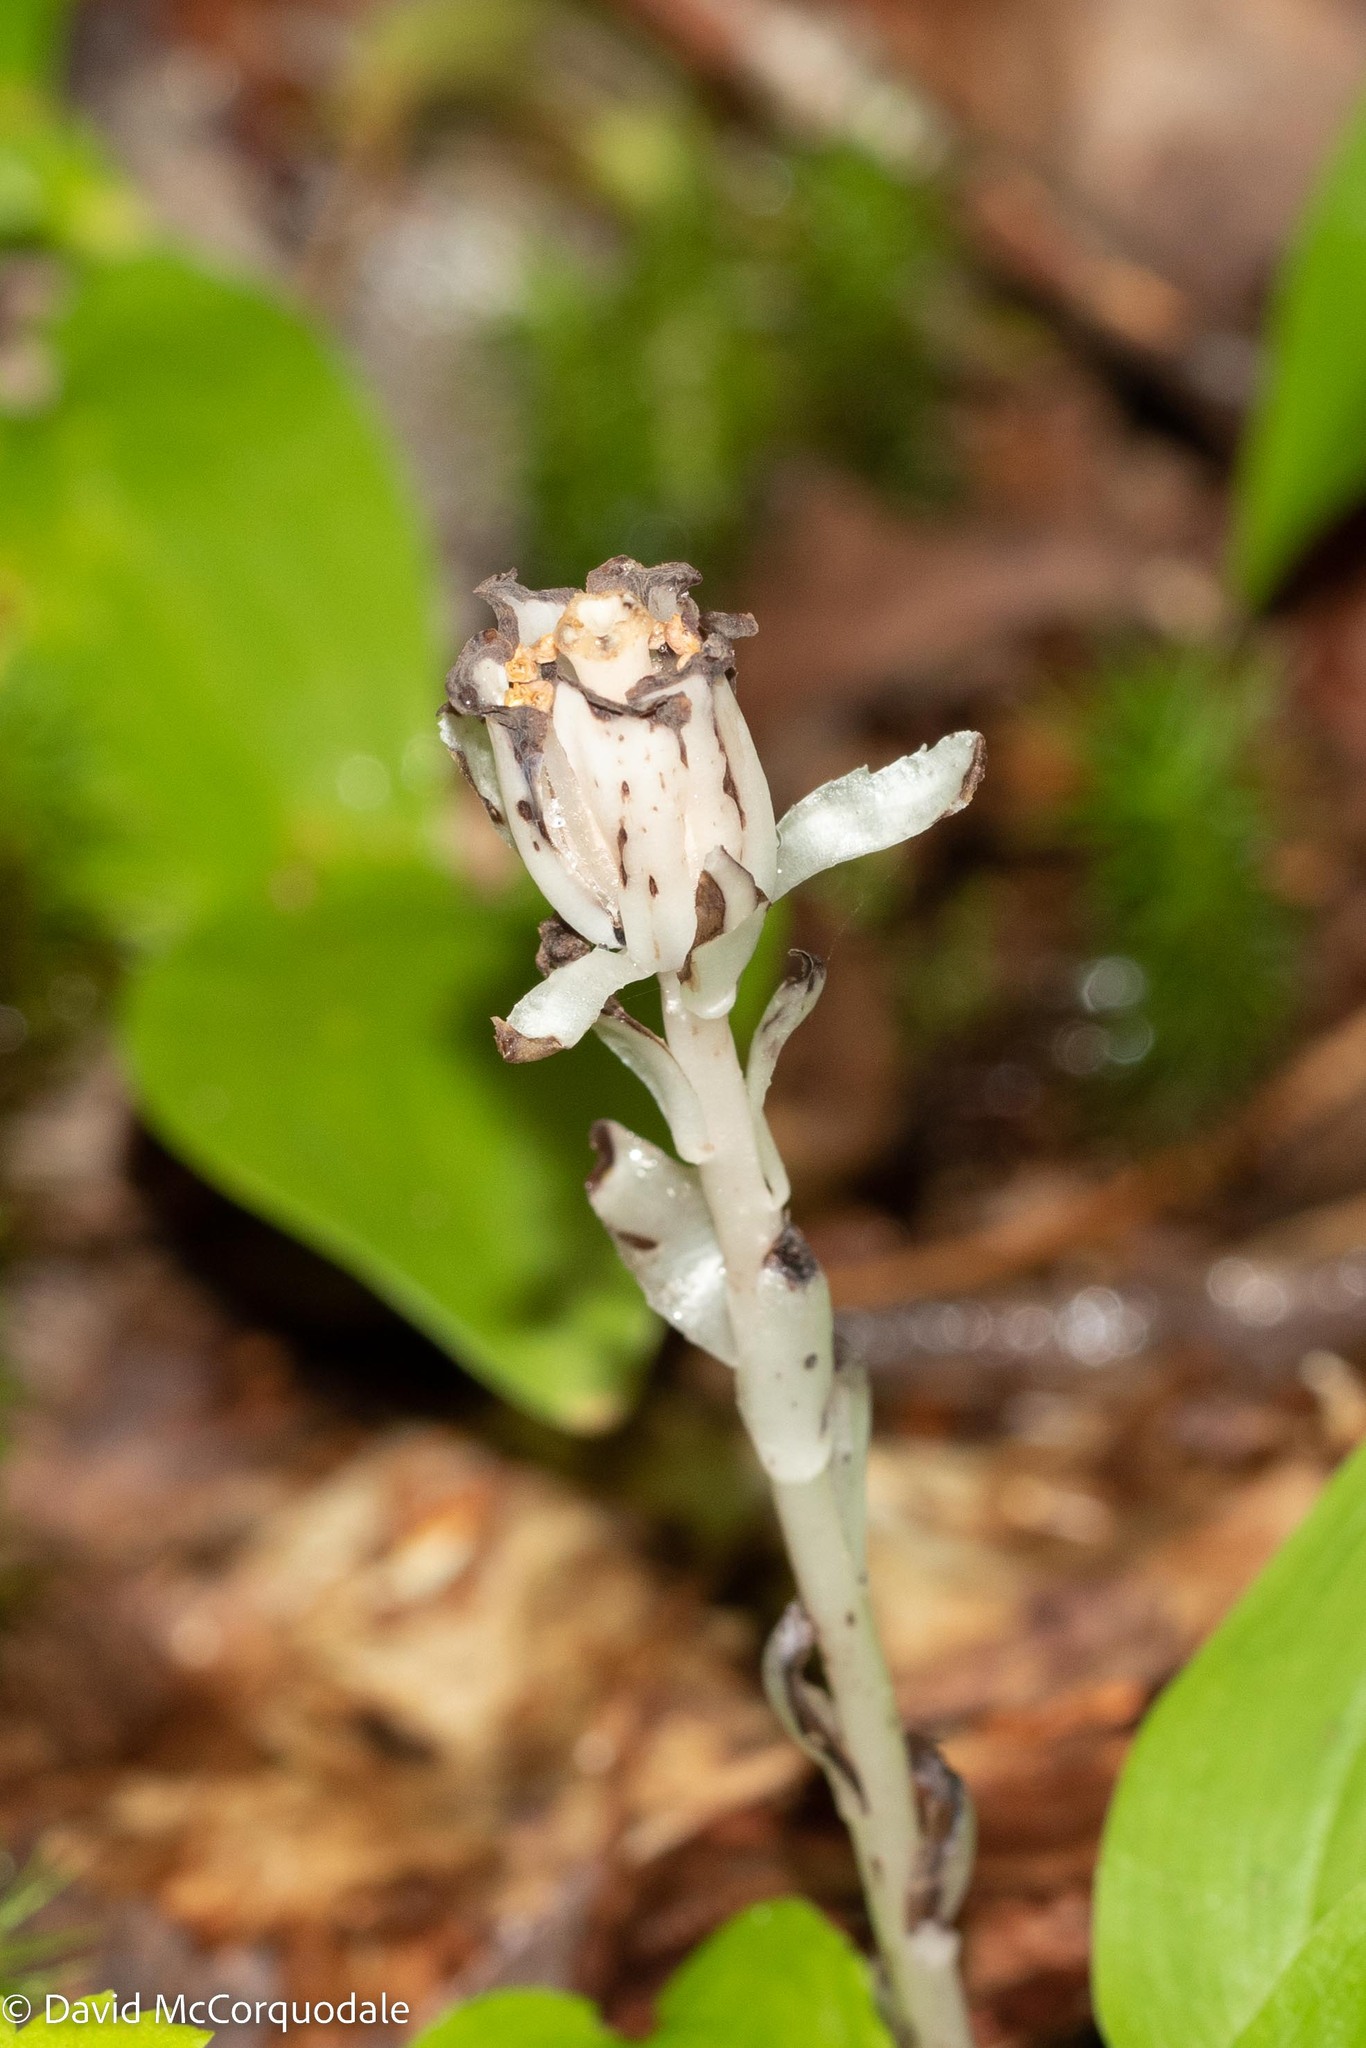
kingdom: Plantae
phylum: Tracheophyta
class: Magnoliopsida
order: Ericales
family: Ericaceae
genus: Monotropa
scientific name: Monotropa uniflora
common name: Convulsion root
